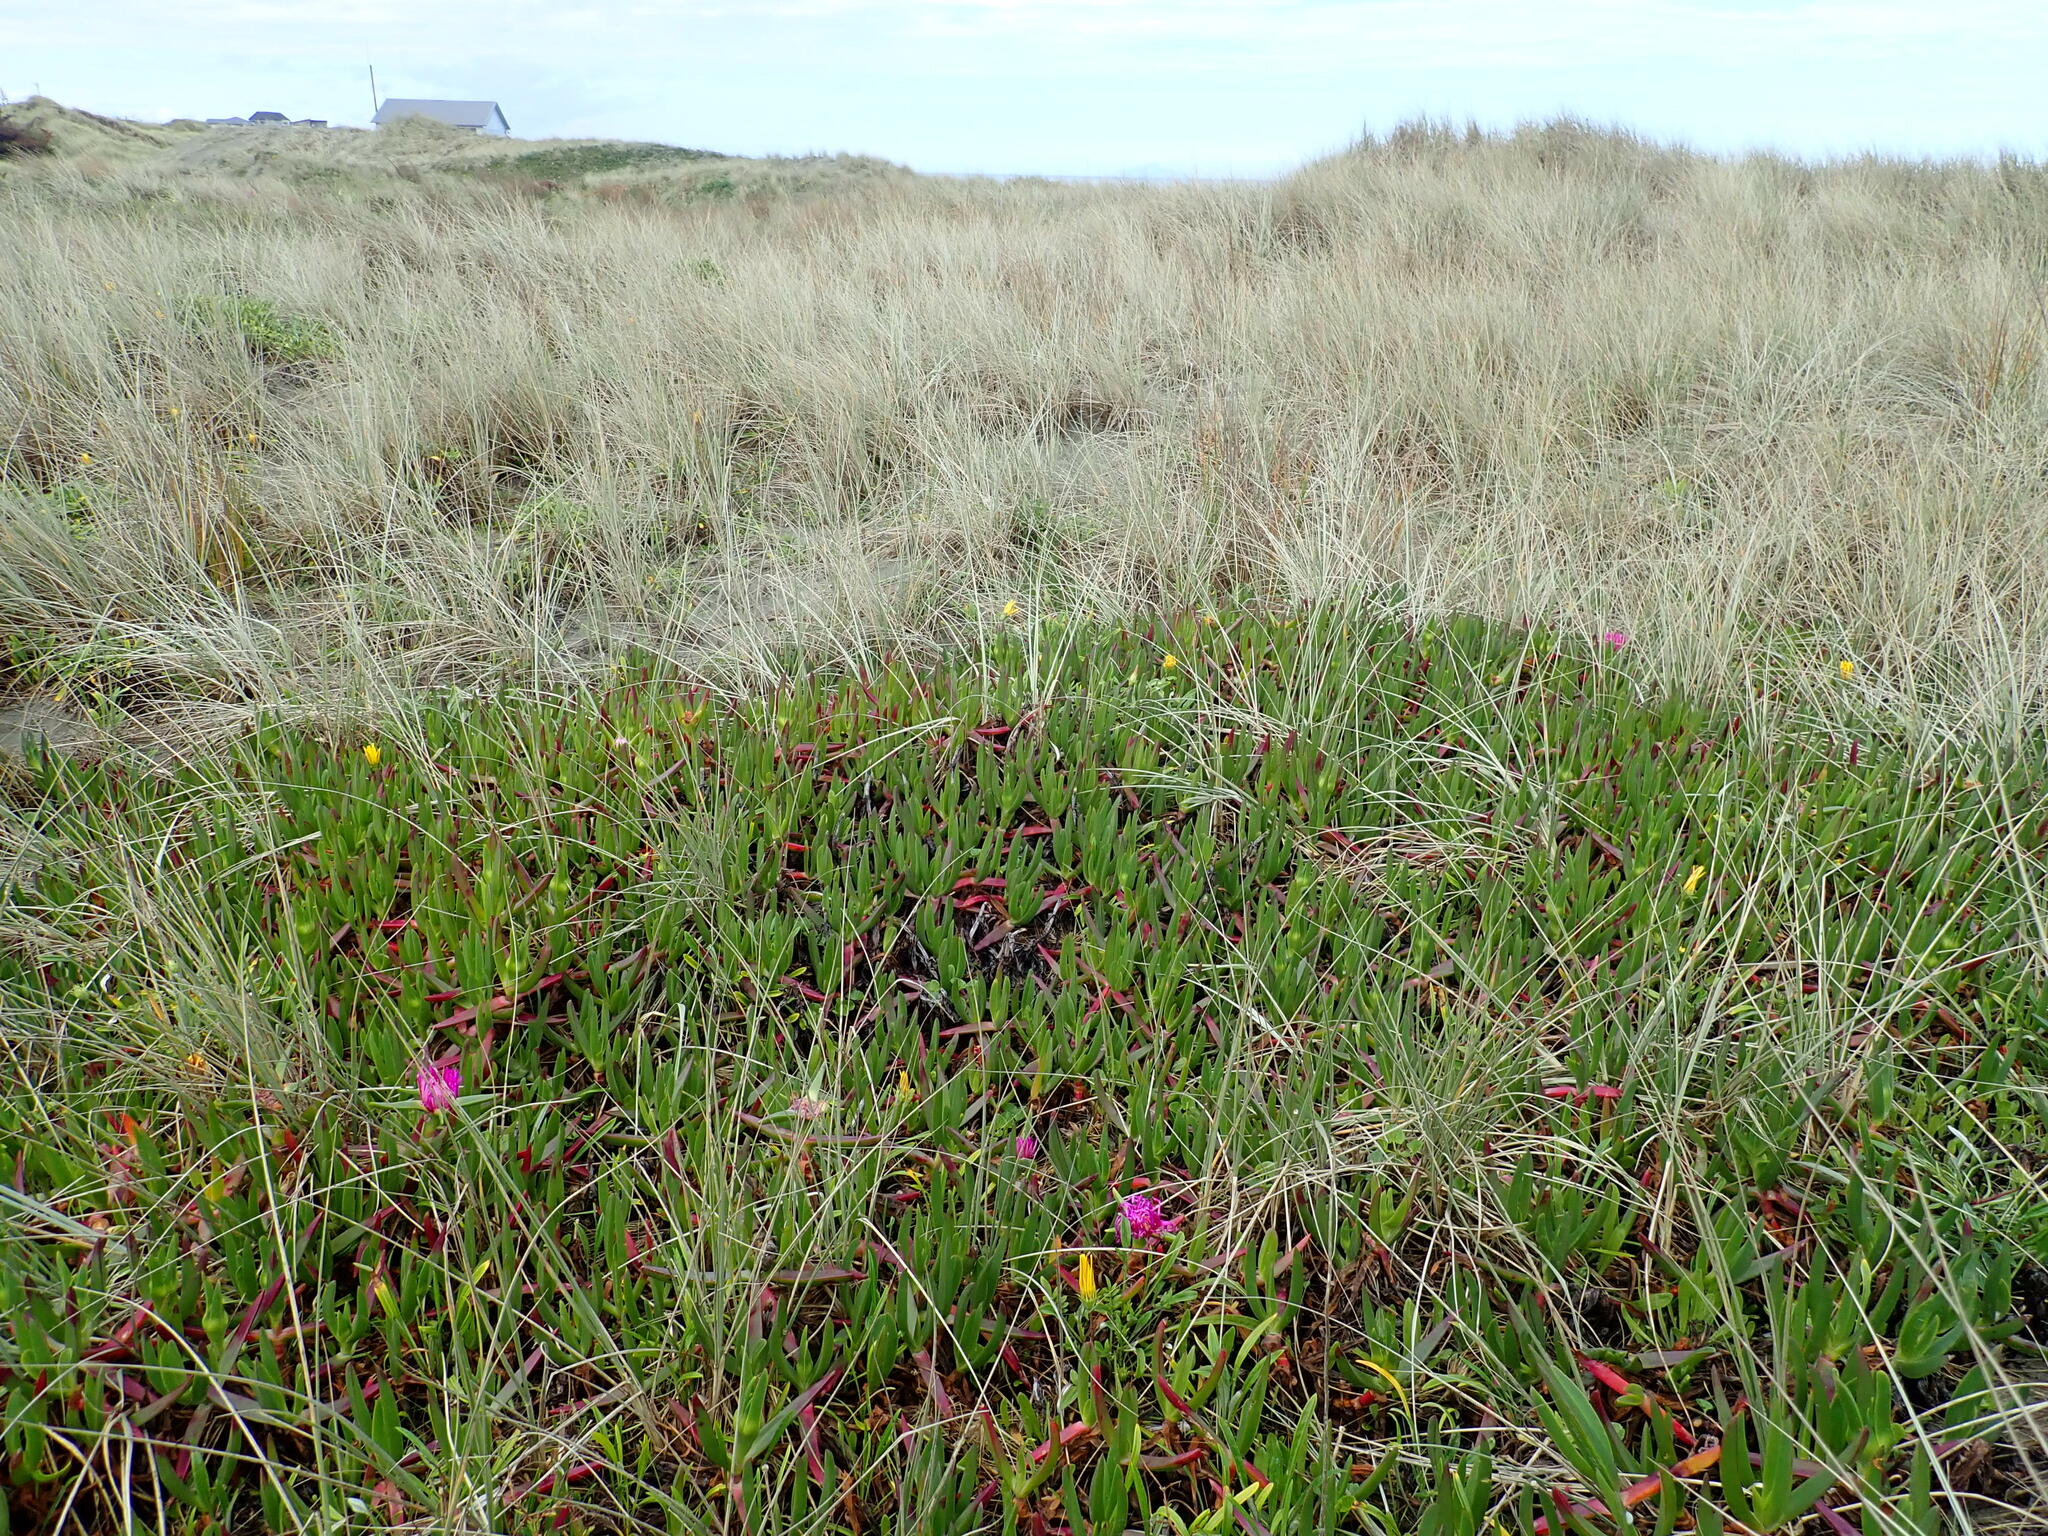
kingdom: Plantae
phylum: Tracheophyta
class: Magnoliopsida
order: Caryophyllales
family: Aizoaceae
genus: Carpobrotus
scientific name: Carpobrotus chilensis
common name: Sea fig
